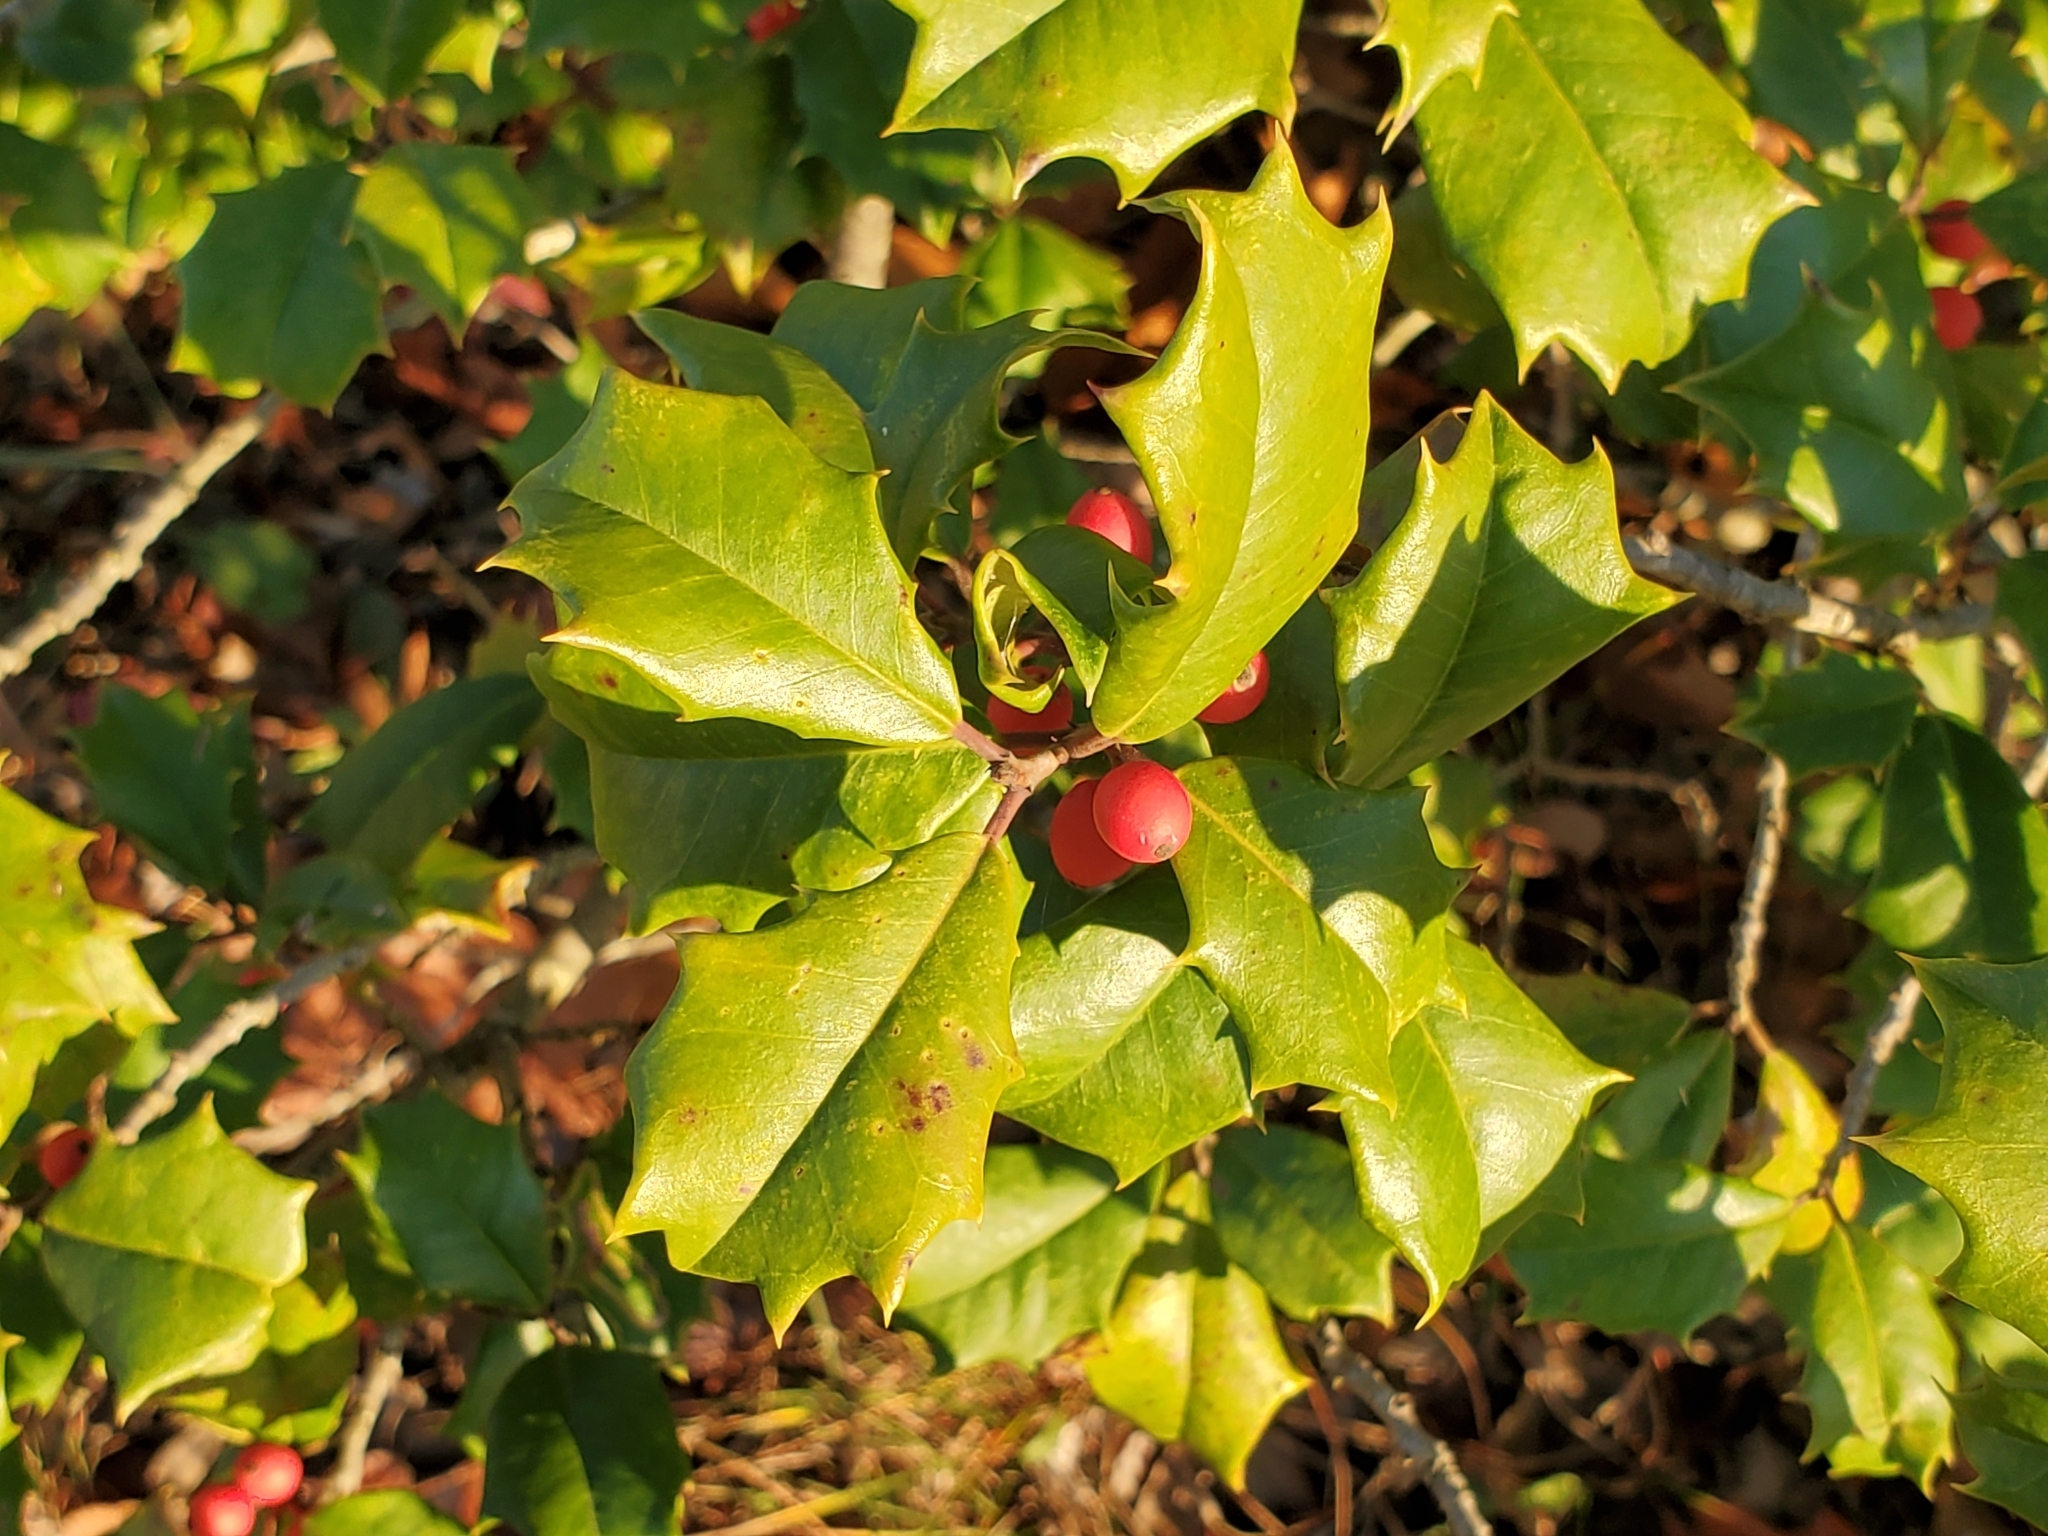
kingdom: Plantae
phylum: Tracheophyta
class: Magnoliopsida
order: Aquifoliales
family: Aquifoliaceae
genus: Ilex
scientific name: Ilex opaca
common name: American holly
